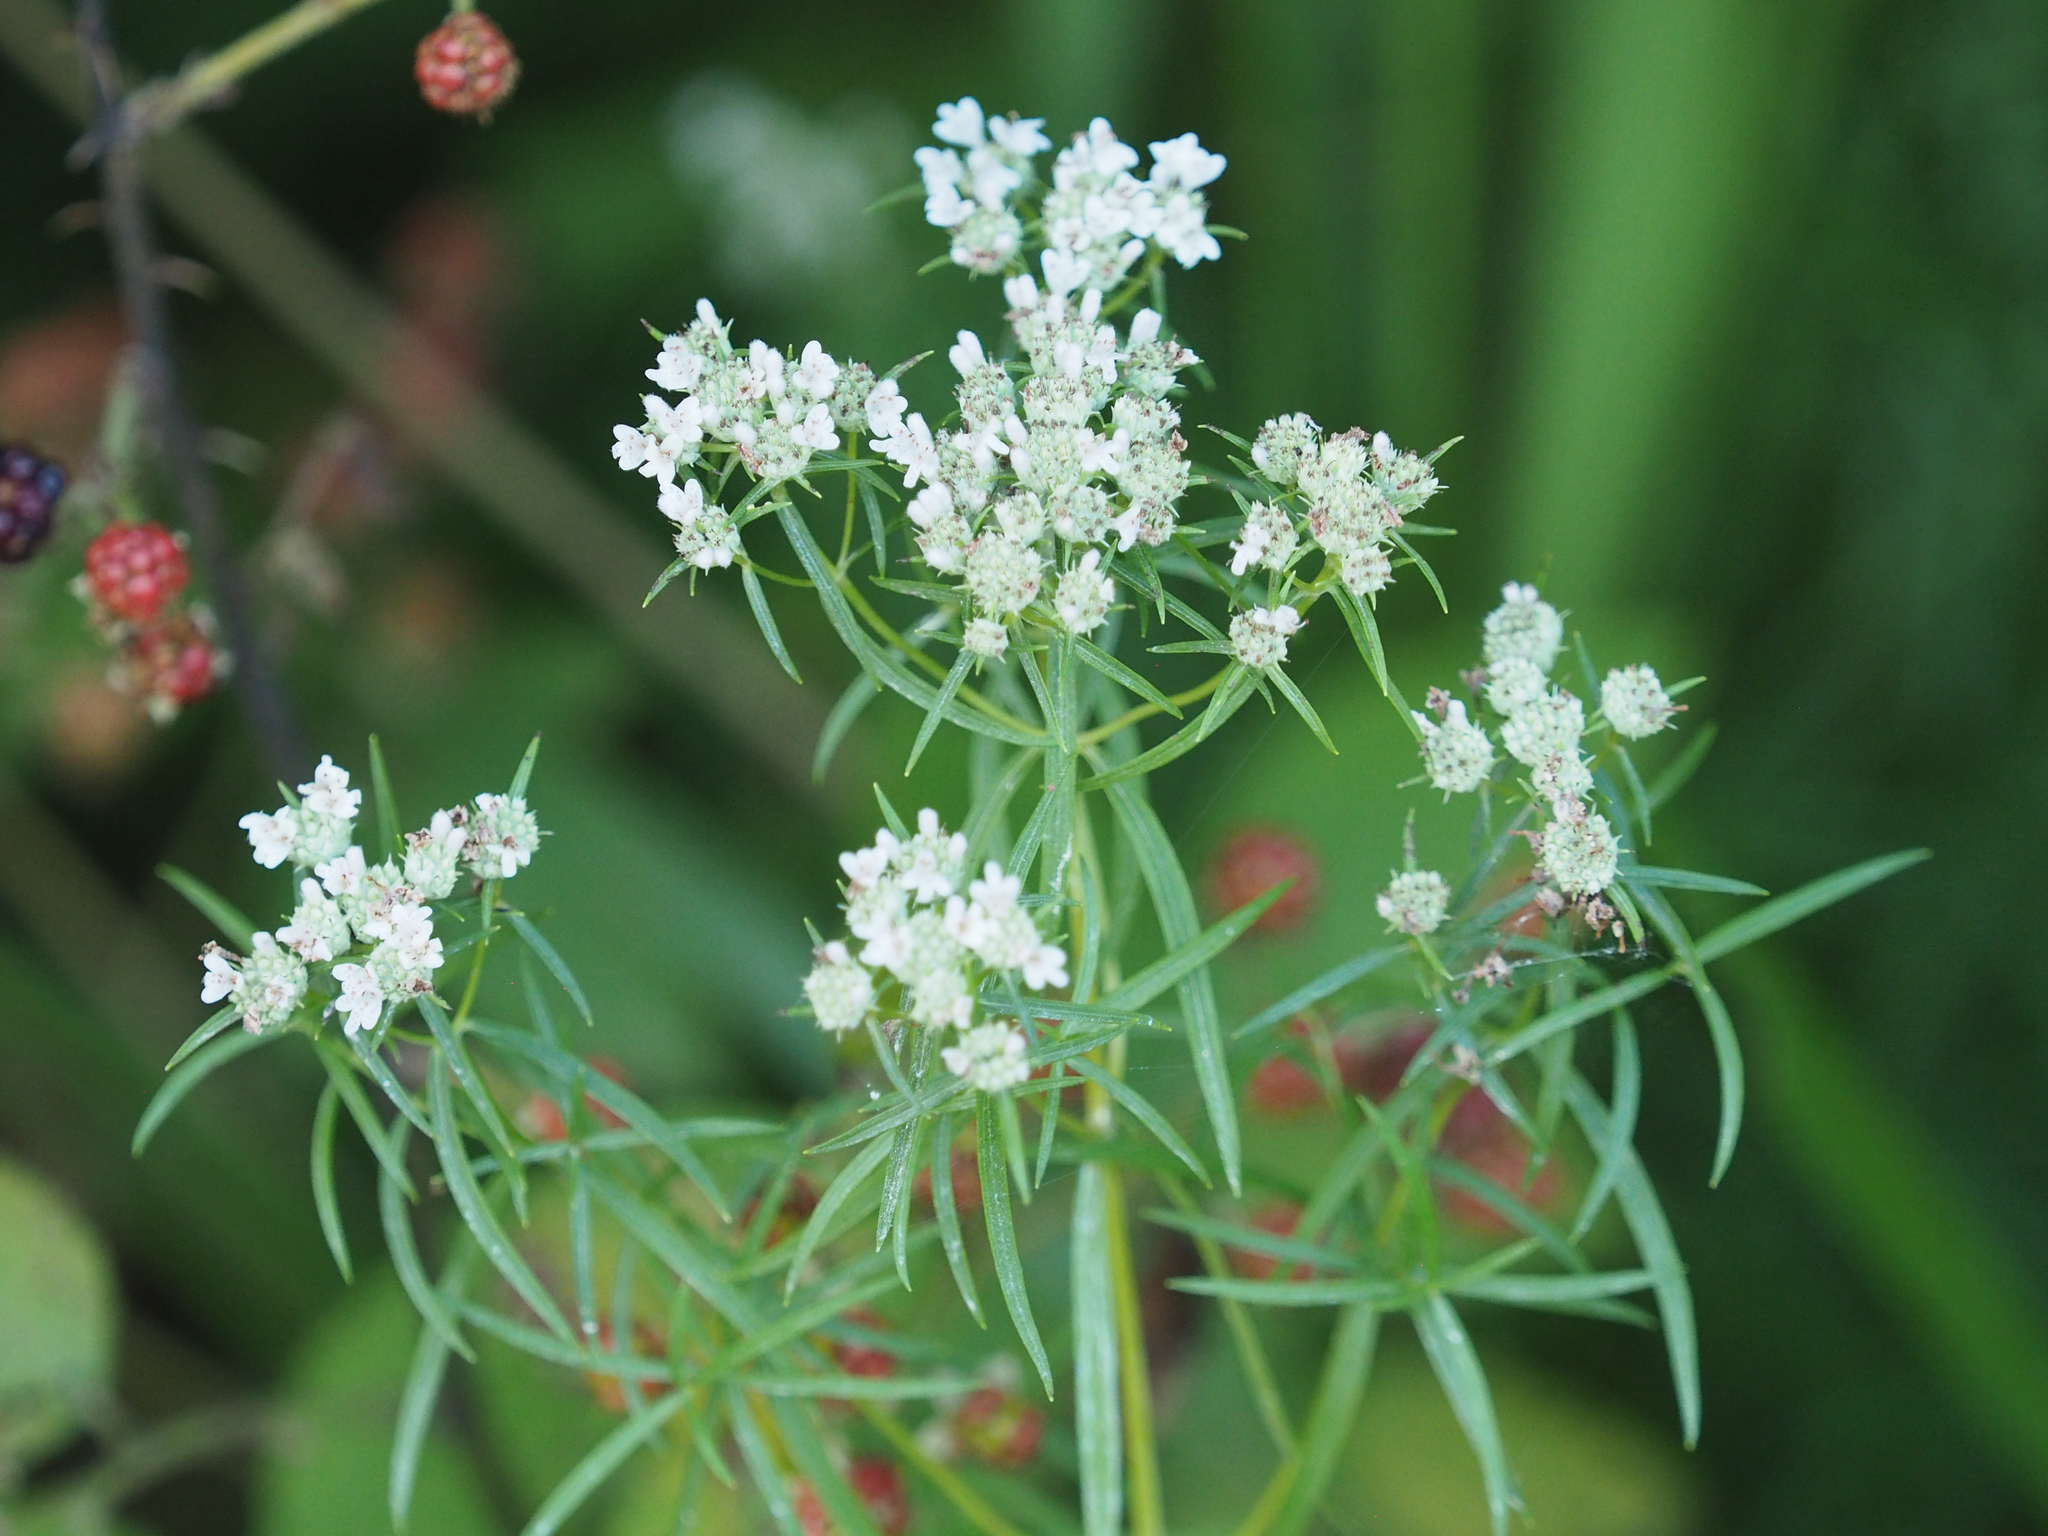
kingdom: Plantae
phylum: Tracheophyta
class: Magnoliopsida
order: Lamiales
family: Lamiaceae
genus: Pycnanthemum
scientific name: Pycnanthemum tenuifolium
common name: Narrow-leaf mountain-mint
